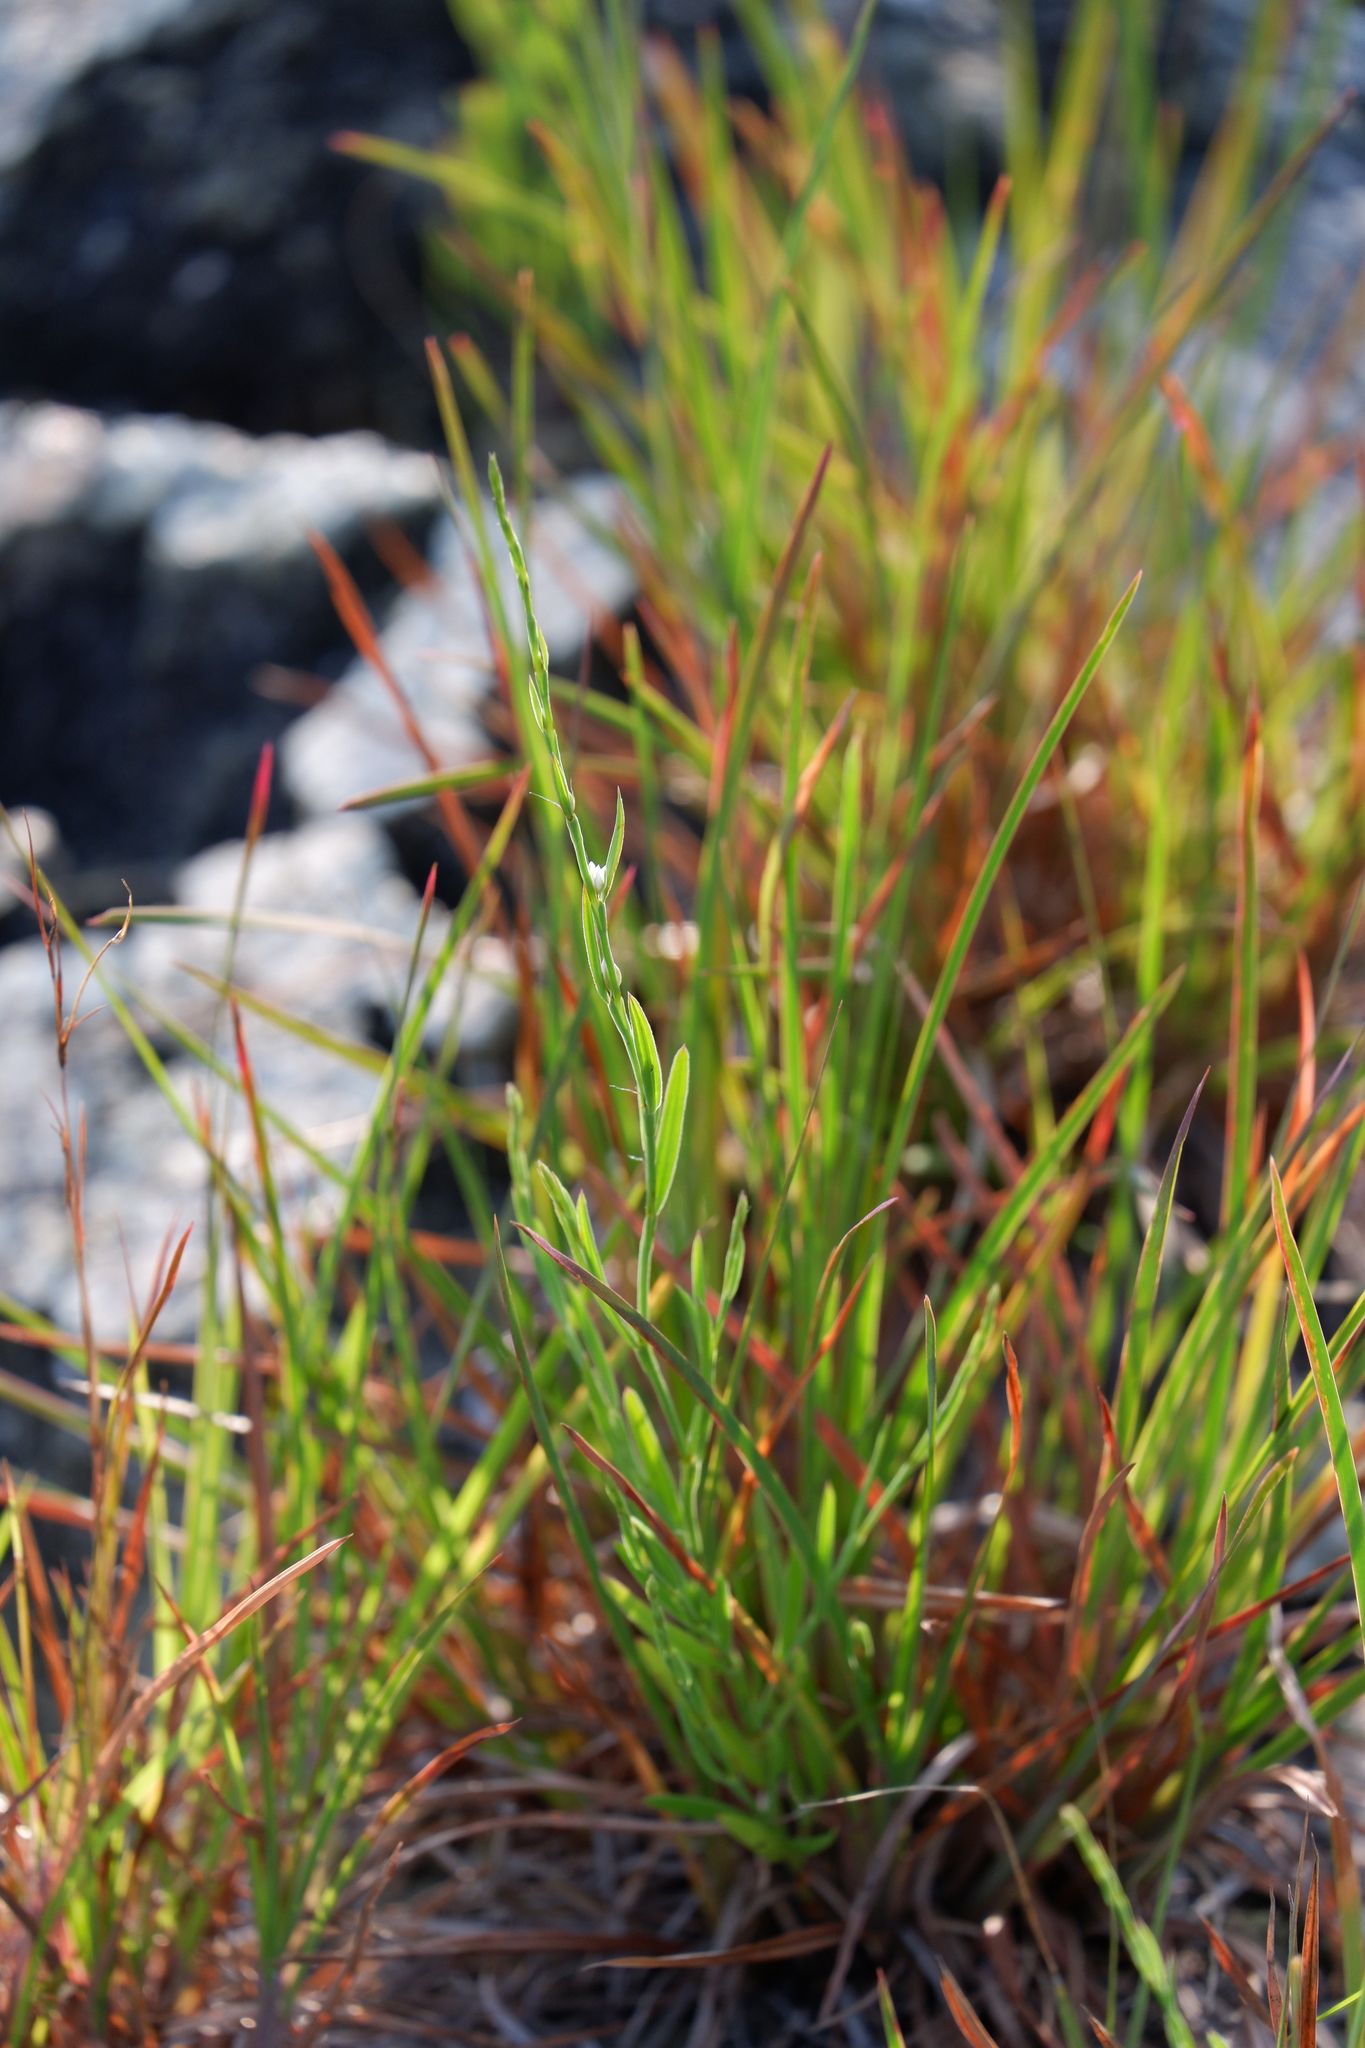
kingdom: Plantae
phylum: Tracheophyta
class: Magnoliopsida
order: Caryophyllales
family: Polygonaceae
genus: Polygonum
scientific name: Polygonum tenue
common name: Pleat-leaved knotweed
